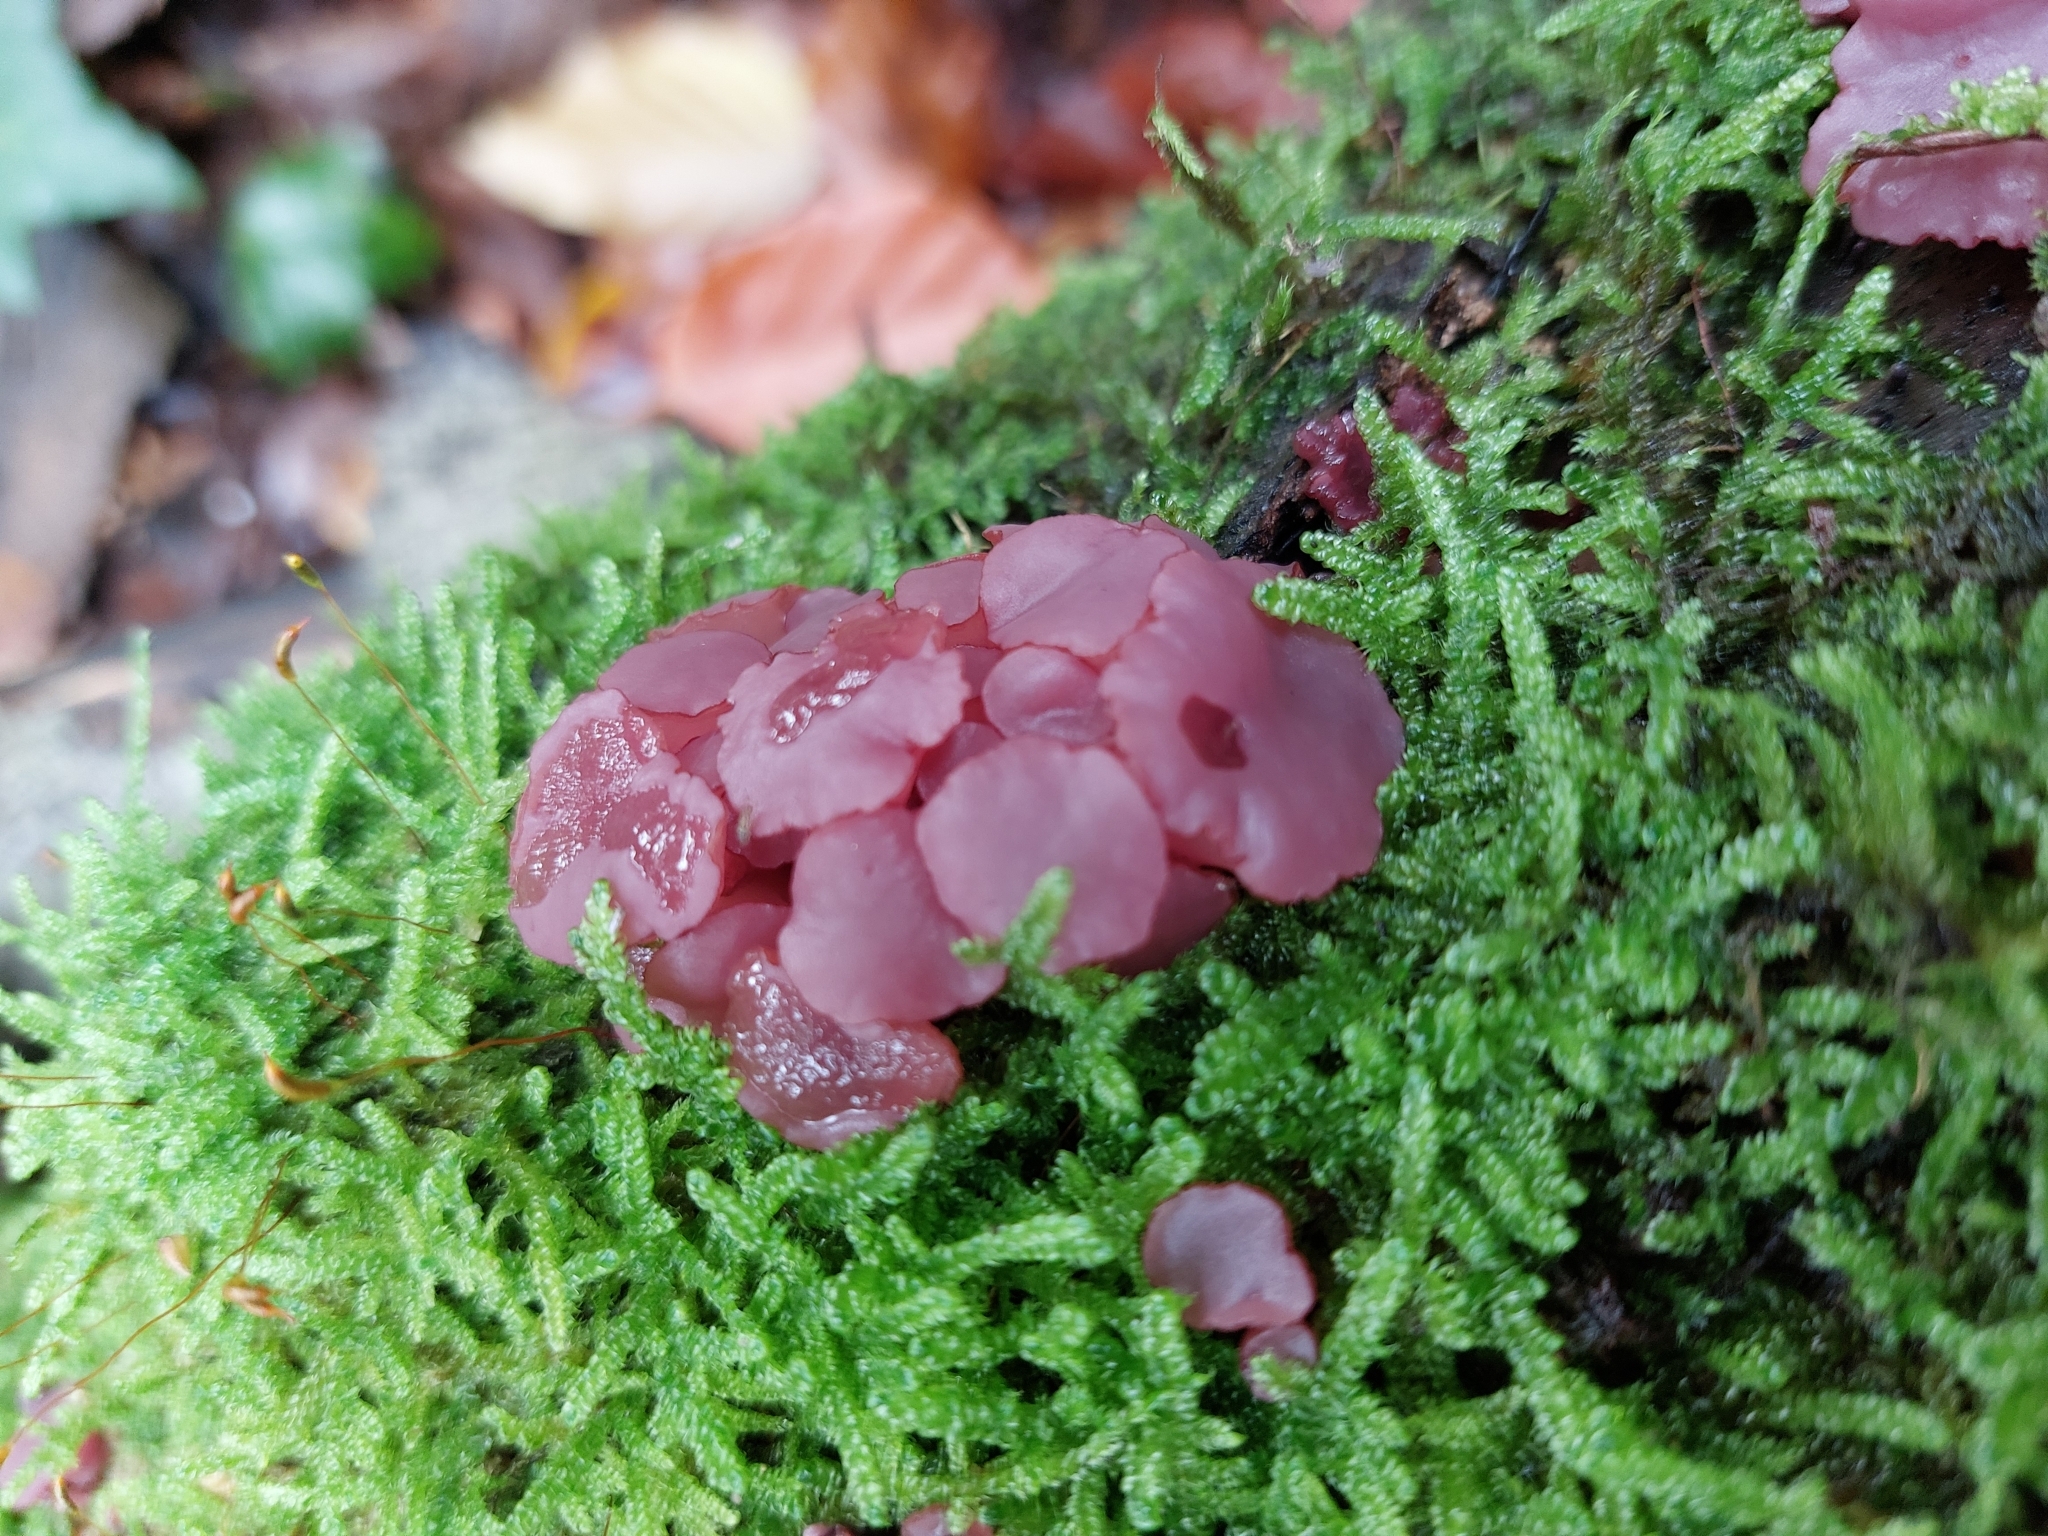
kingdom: Fungi
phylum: Ascomycota
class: Leotiomycetes
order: Helotiales
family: Gelatinodiscaceae
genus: Ascocoryne
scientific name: Ascocoryne sarcoides
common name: Purple jellydisc
